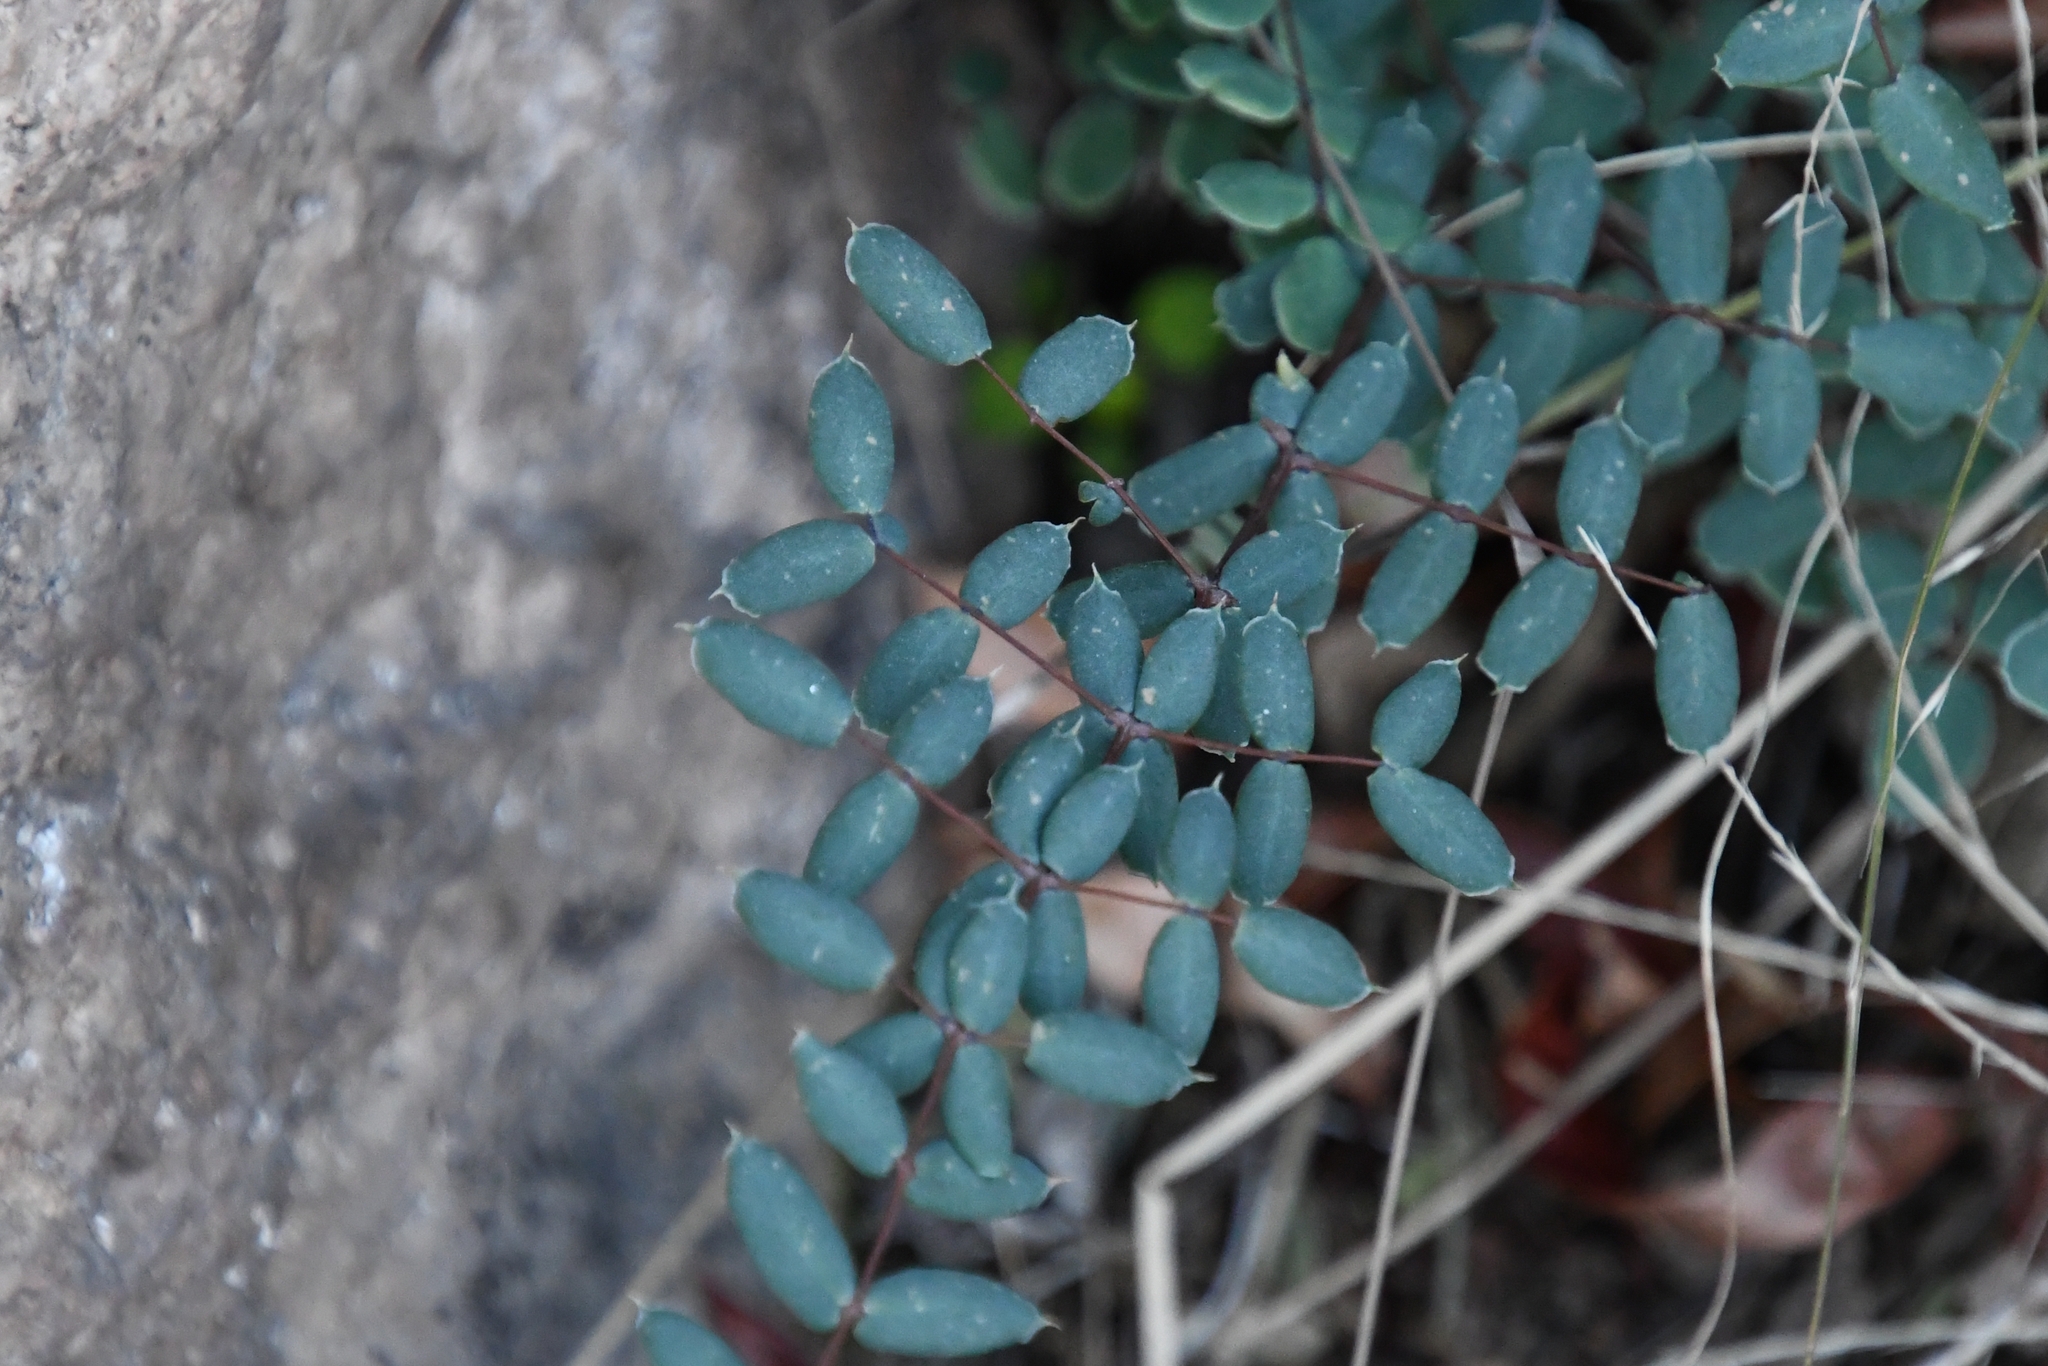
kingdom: Plantae
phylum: Tracheophyta
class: Polypodiopsida
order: Polypodiales
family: Pteridaceae
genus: Pellaea
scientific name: Pellaea truncata
